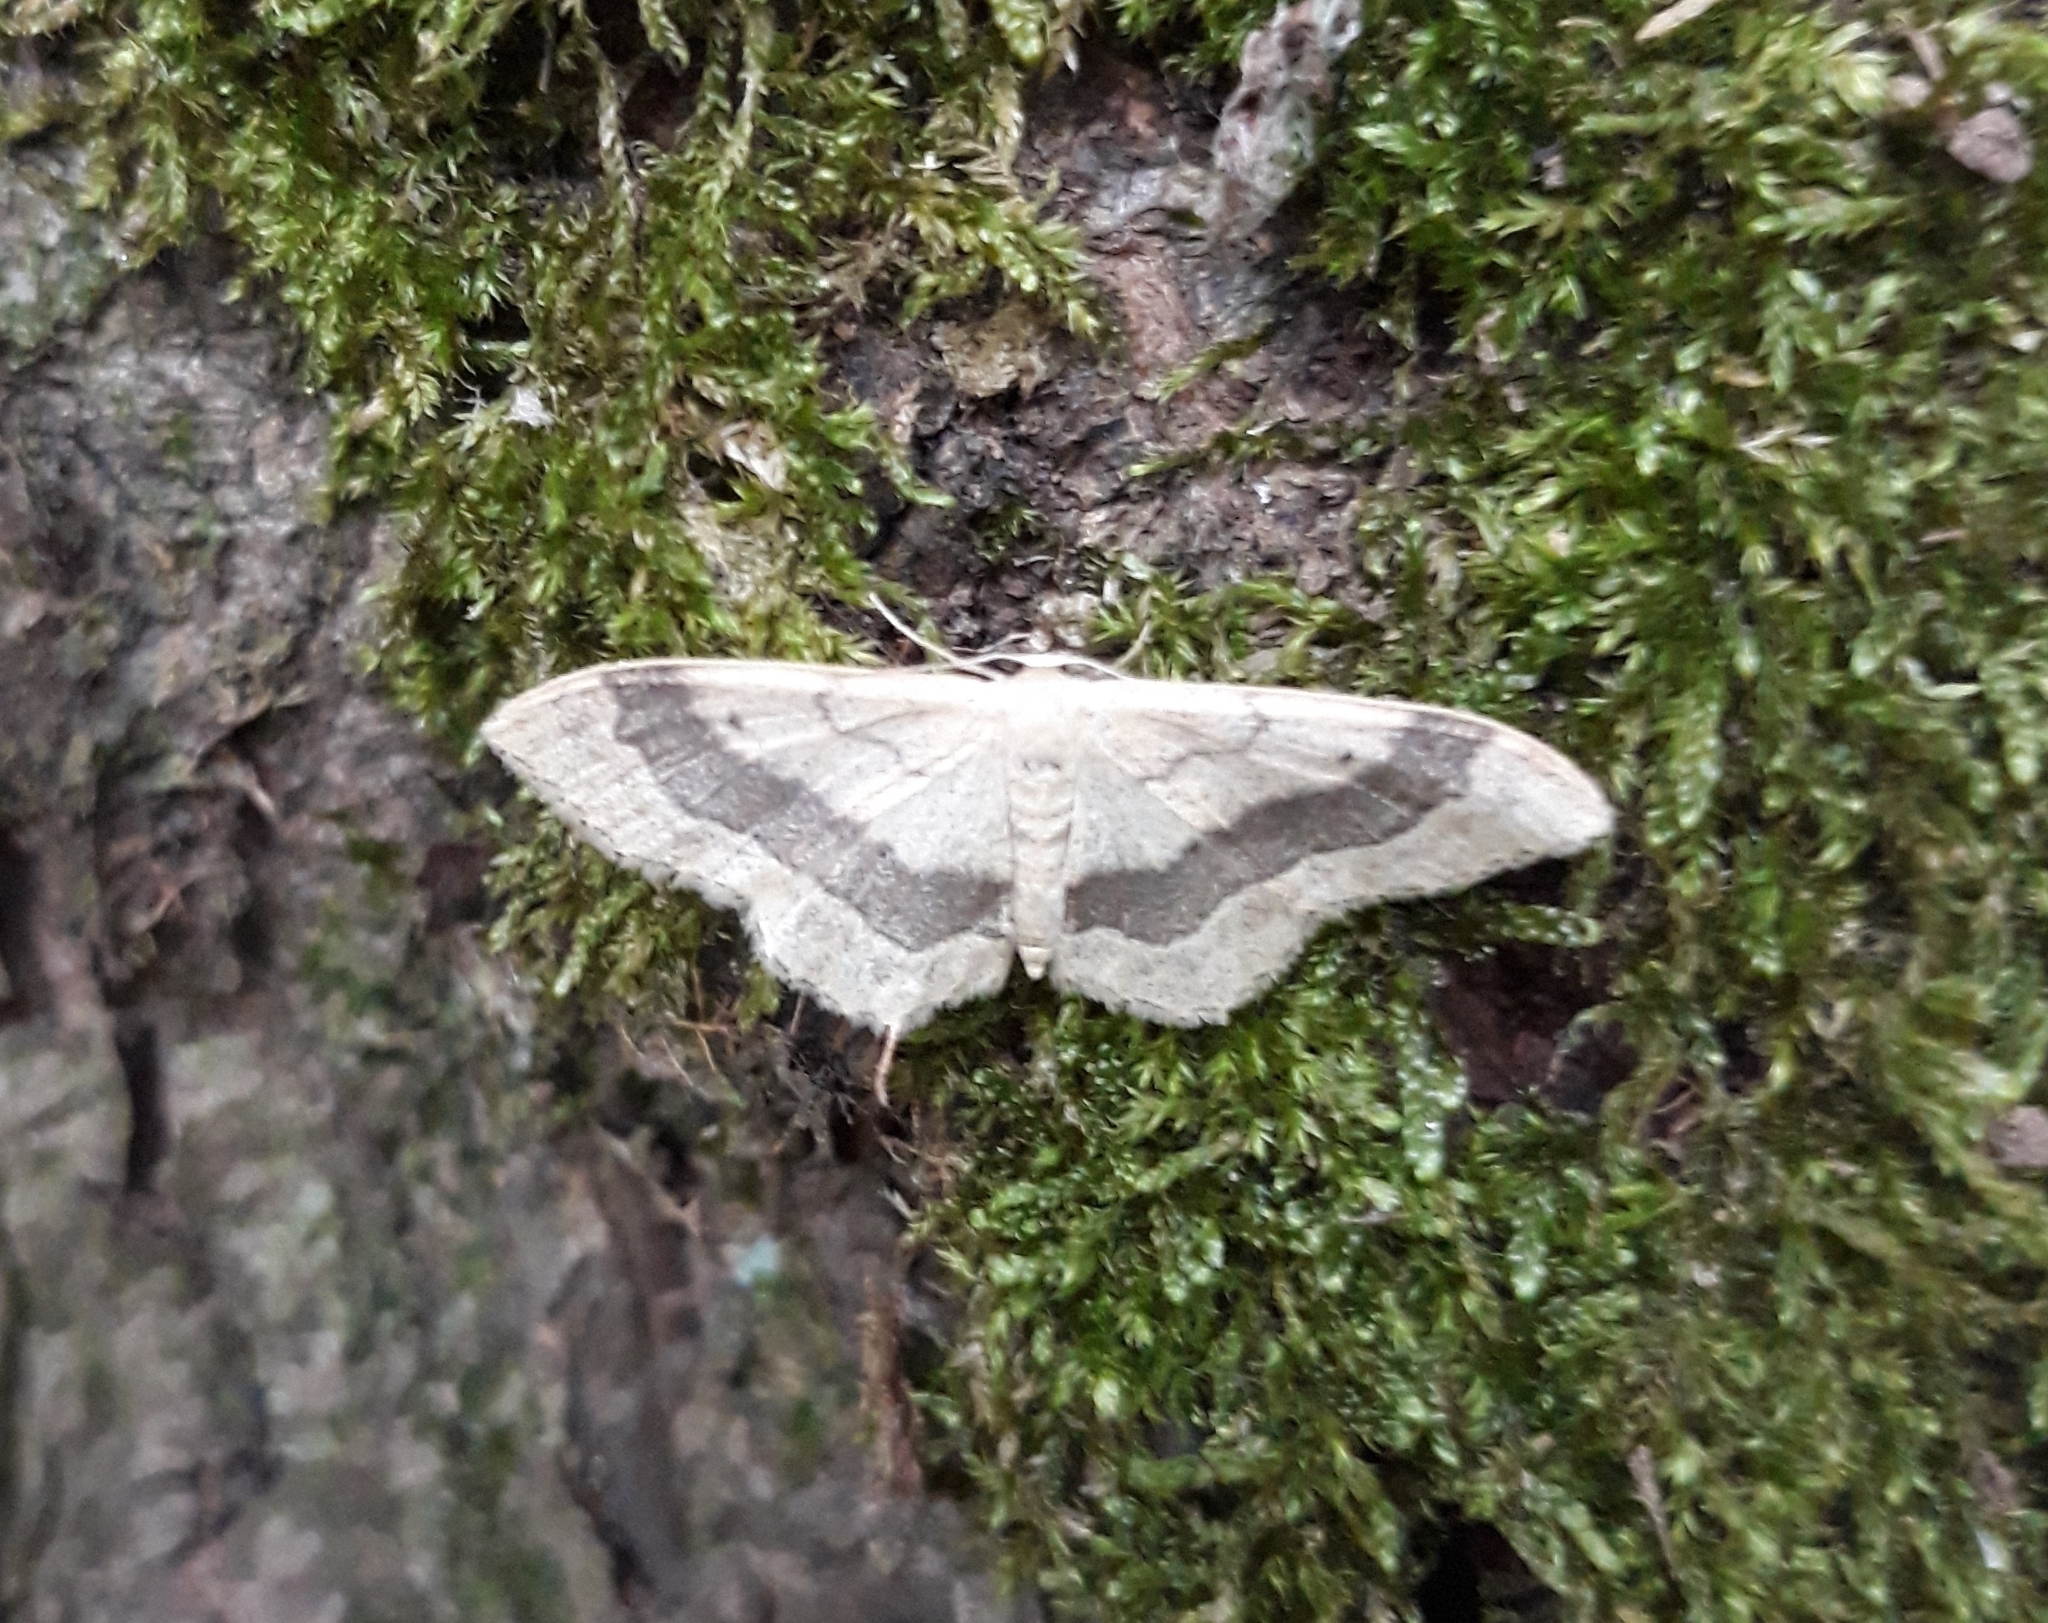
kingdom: Animalia
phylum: Arthropoda
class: Insecta
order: Lepidoptera
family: Geometridae
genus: Idaea
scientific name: Idaea aversata
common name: Riband wave
